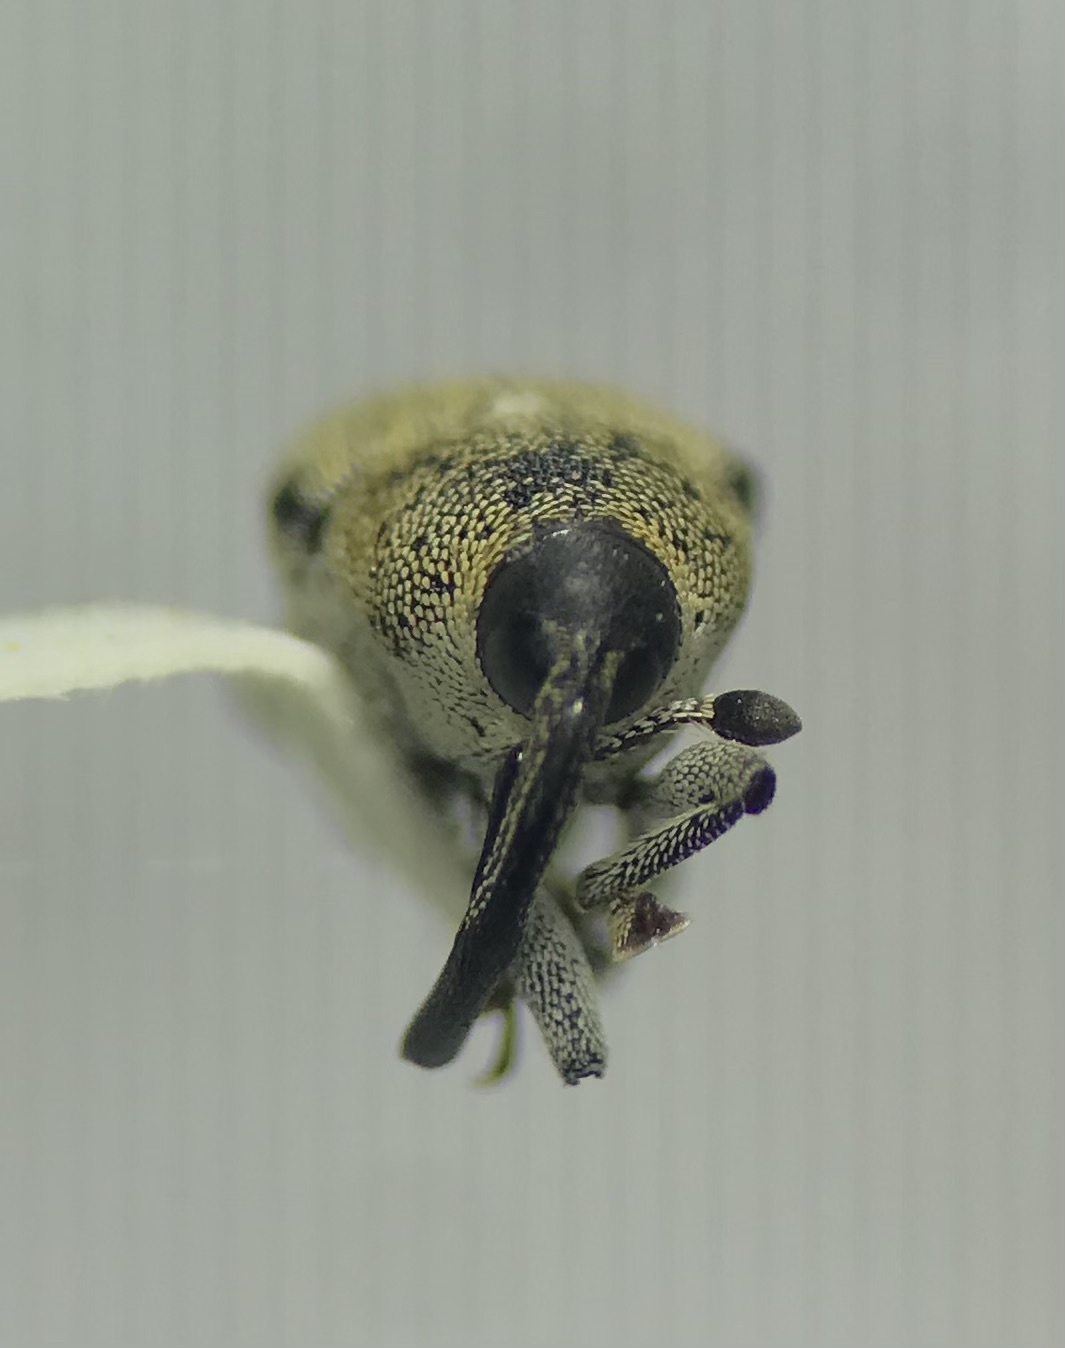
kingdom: Animalia
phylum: Arthropoda
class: Insecta
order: Coleoptera
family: Curculionidae
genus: Odontocorynus
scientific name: Odontocorynus pulverulentus
